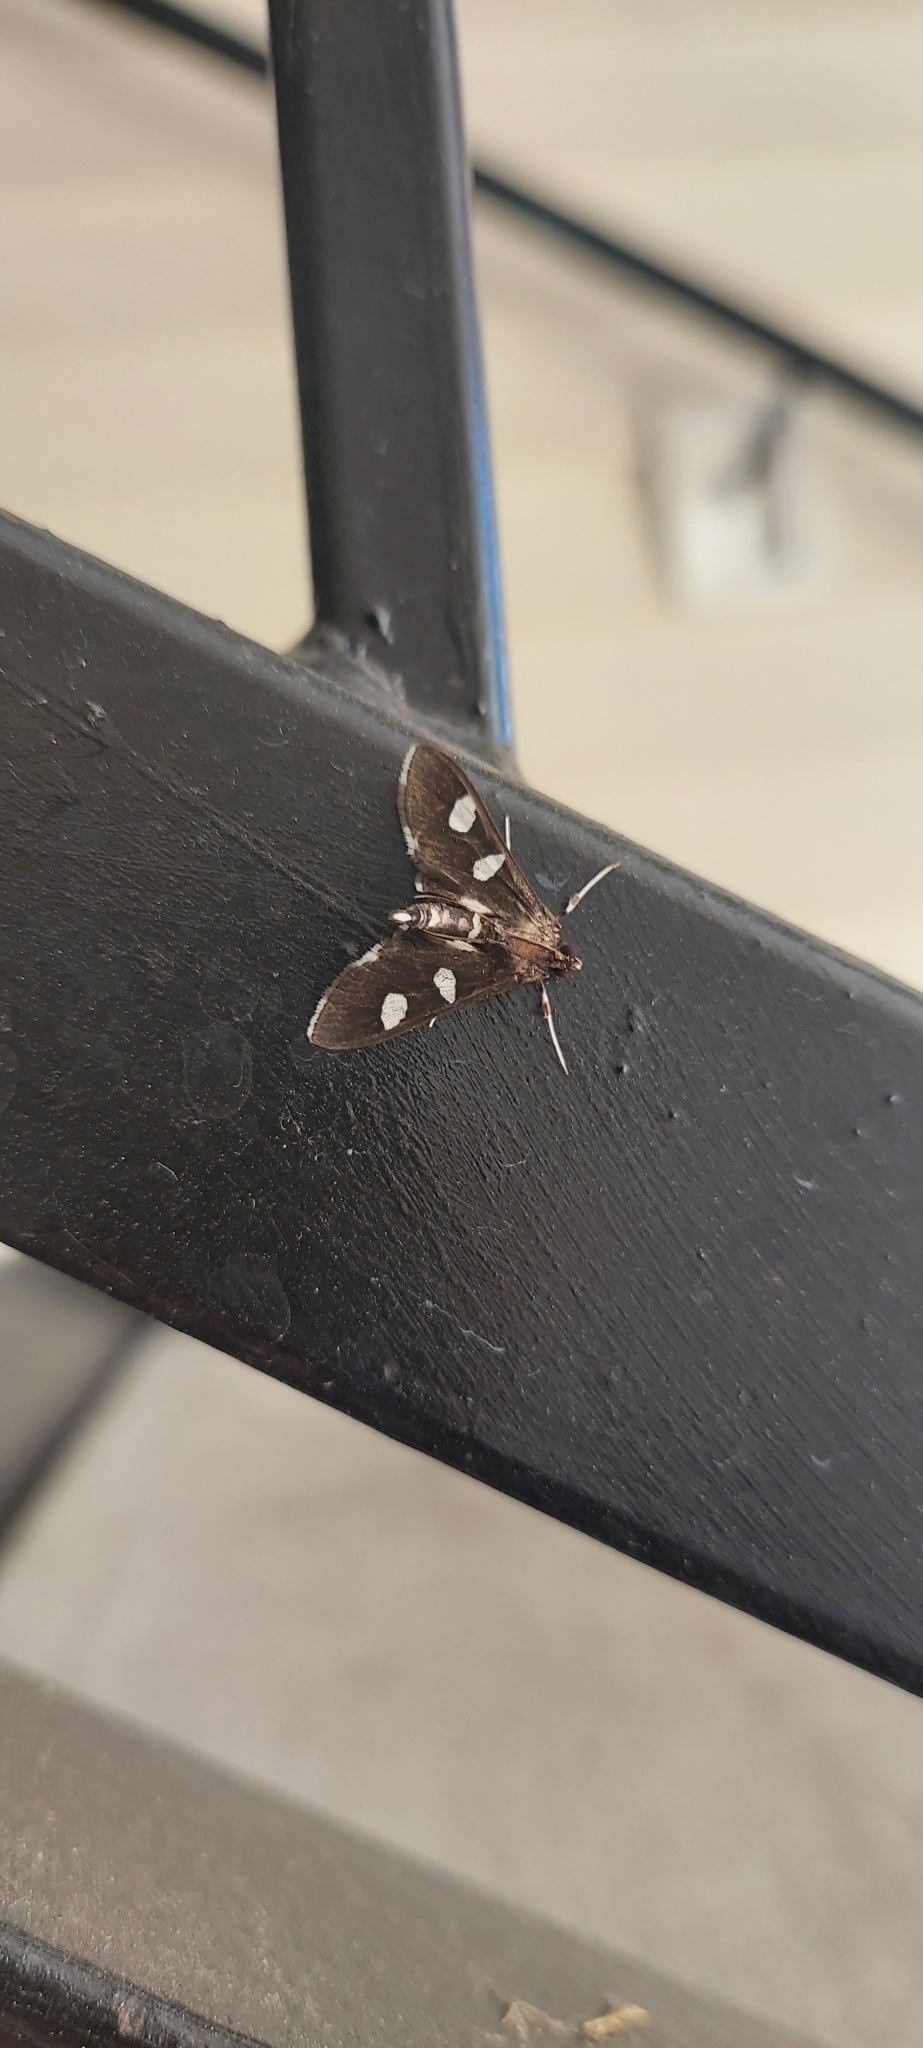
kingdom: Animalia
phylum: Arthropoda
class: Insecta
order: Lepidoptera
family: Crambidae
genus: Desmia
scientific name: Desmia
